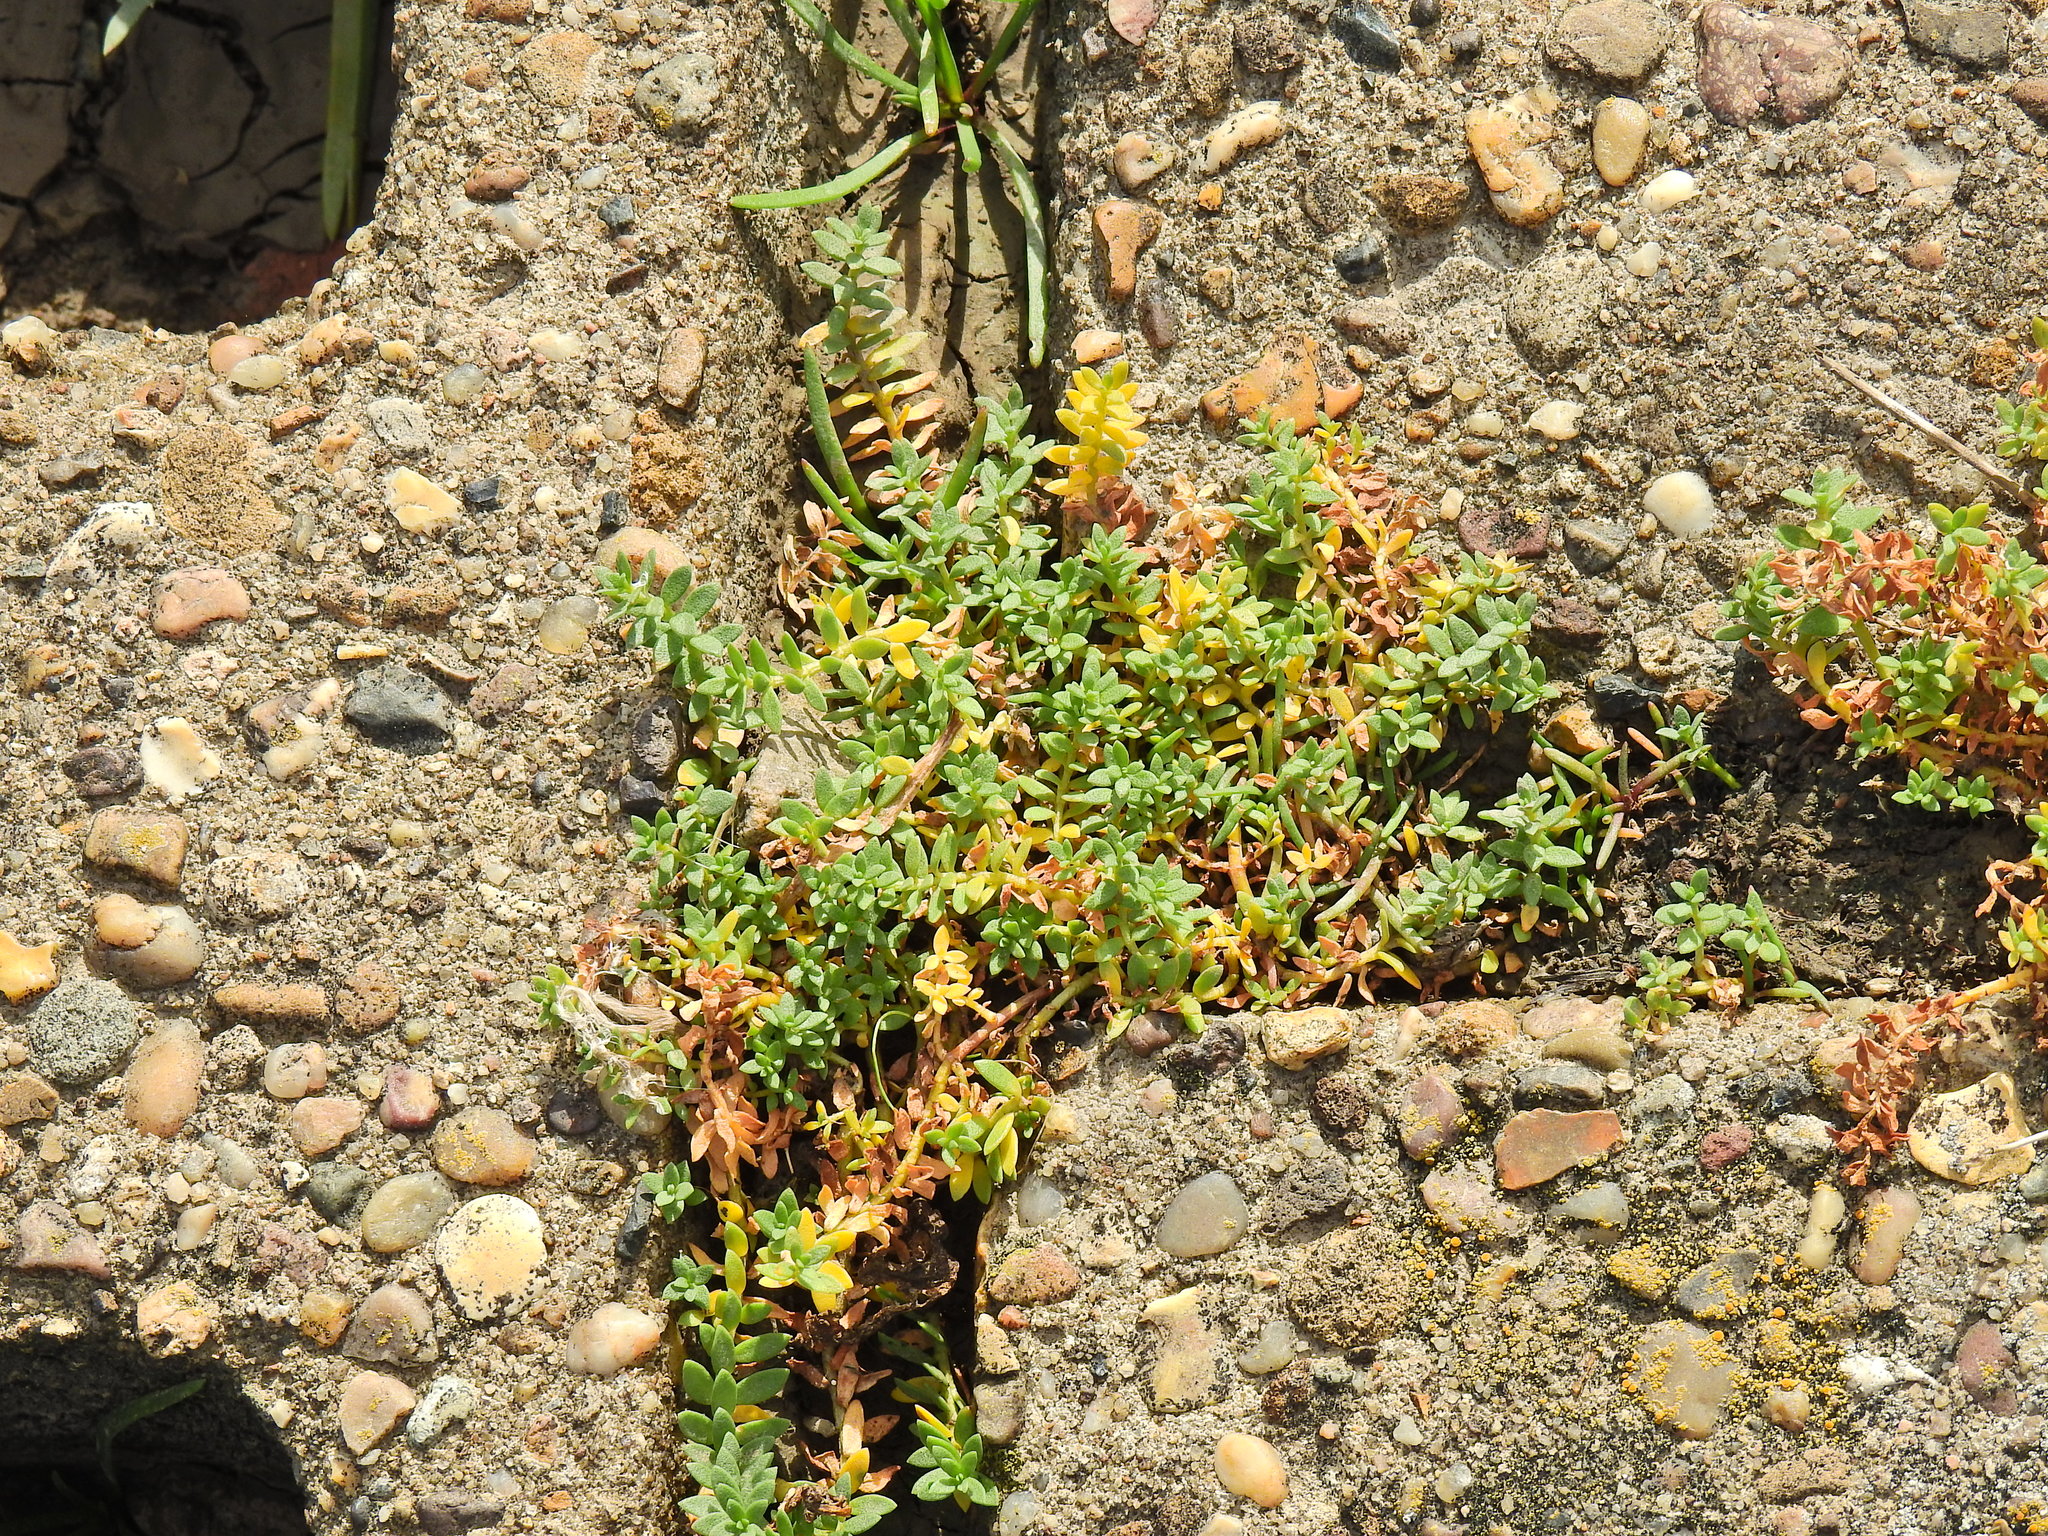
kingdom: Plantae
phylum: Tracheophyta
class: Magnoliopsida
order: Ericales
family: Primulaceae
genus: Lysimachia
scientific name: Lysimachia maritima
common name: Sea milkwort
